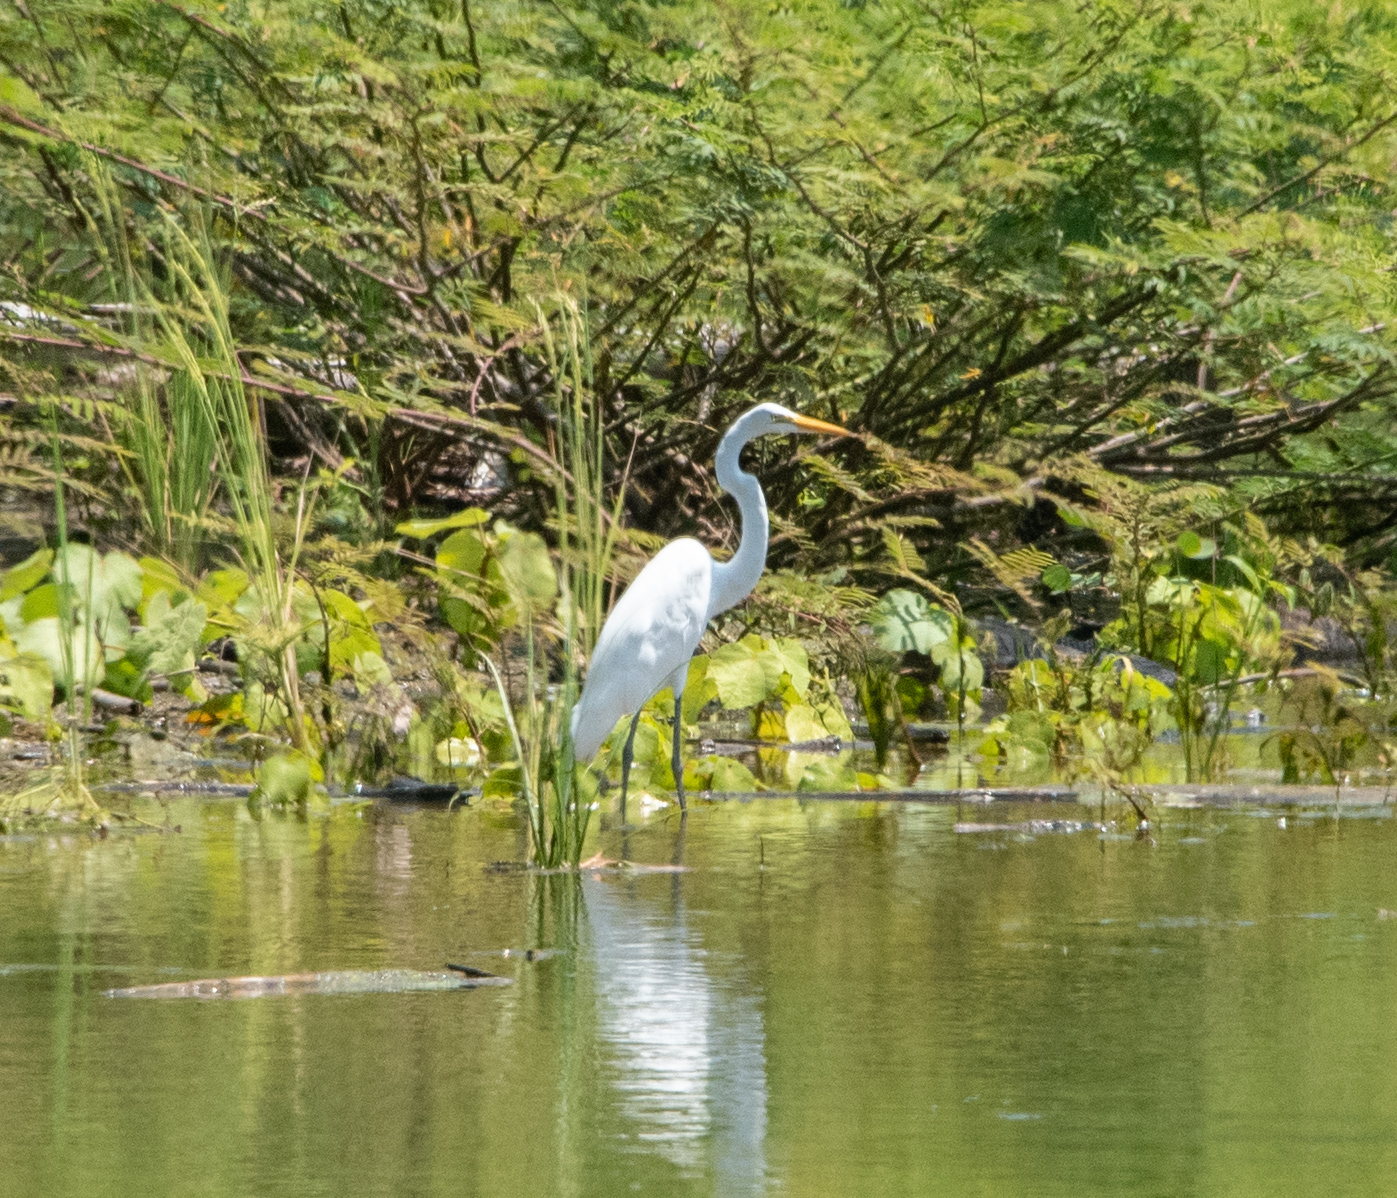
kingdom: Animalia
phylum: Chordata
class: Aves
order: Pelecaniformes
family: Ardeidae
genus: Ardea
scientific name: Ardea alba
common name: Great egret
